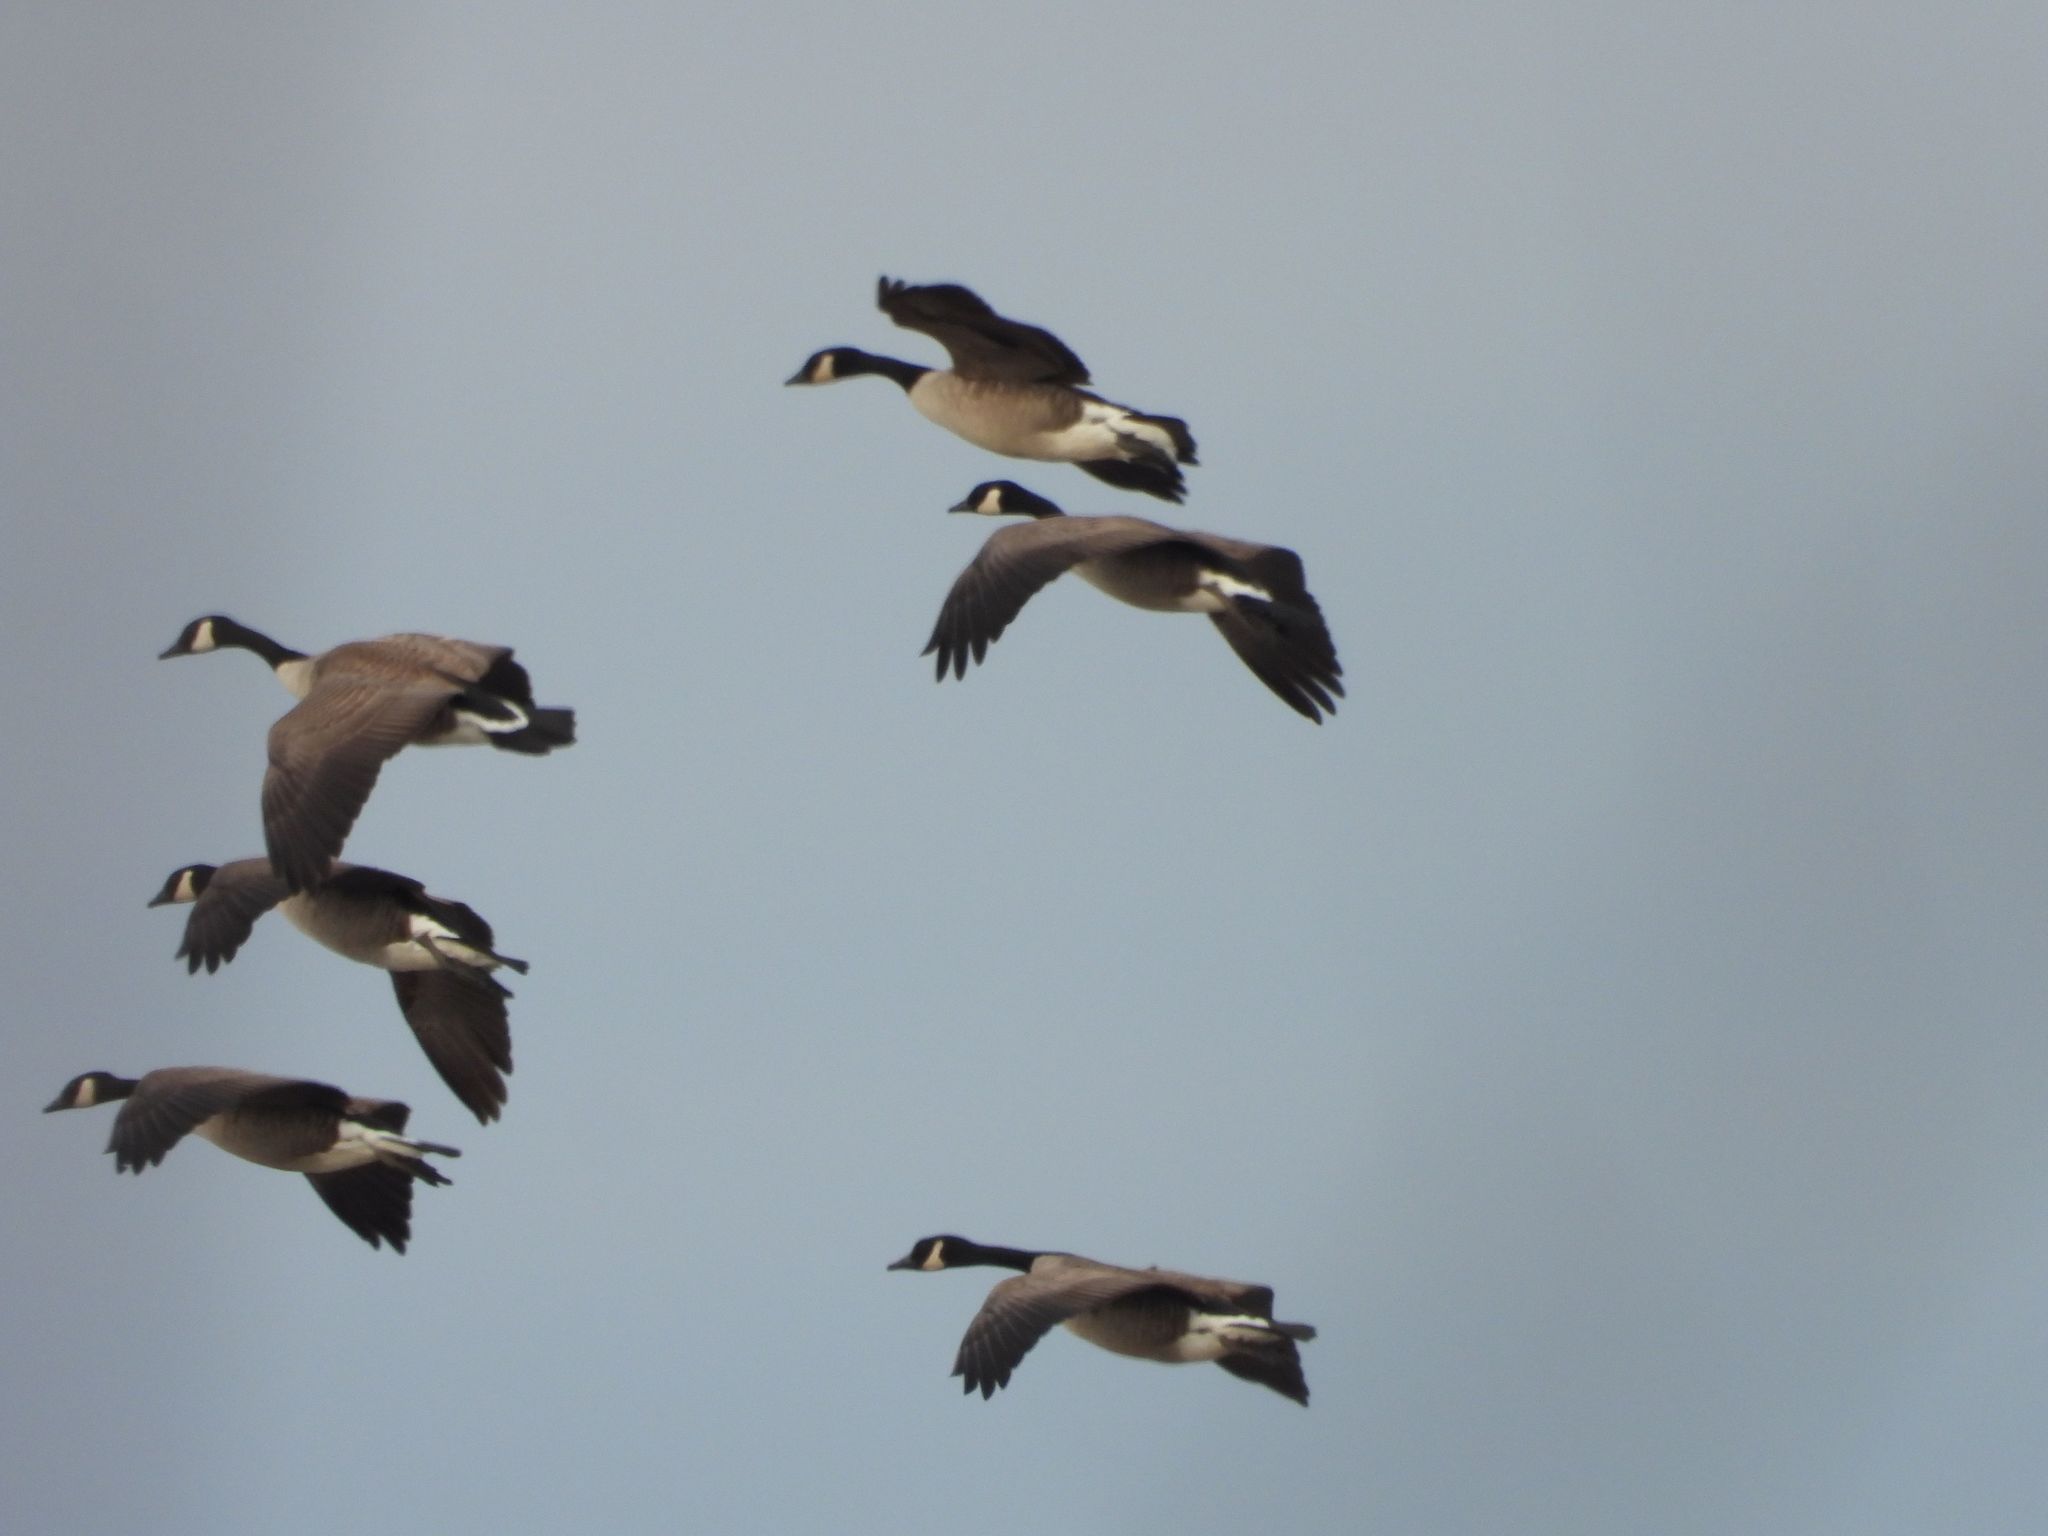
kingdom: Animalia
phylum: Chordata
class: Aves
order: Anseriformes
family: Anatidae
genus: Branta
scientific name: Branta canadensis
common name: Canada goose
